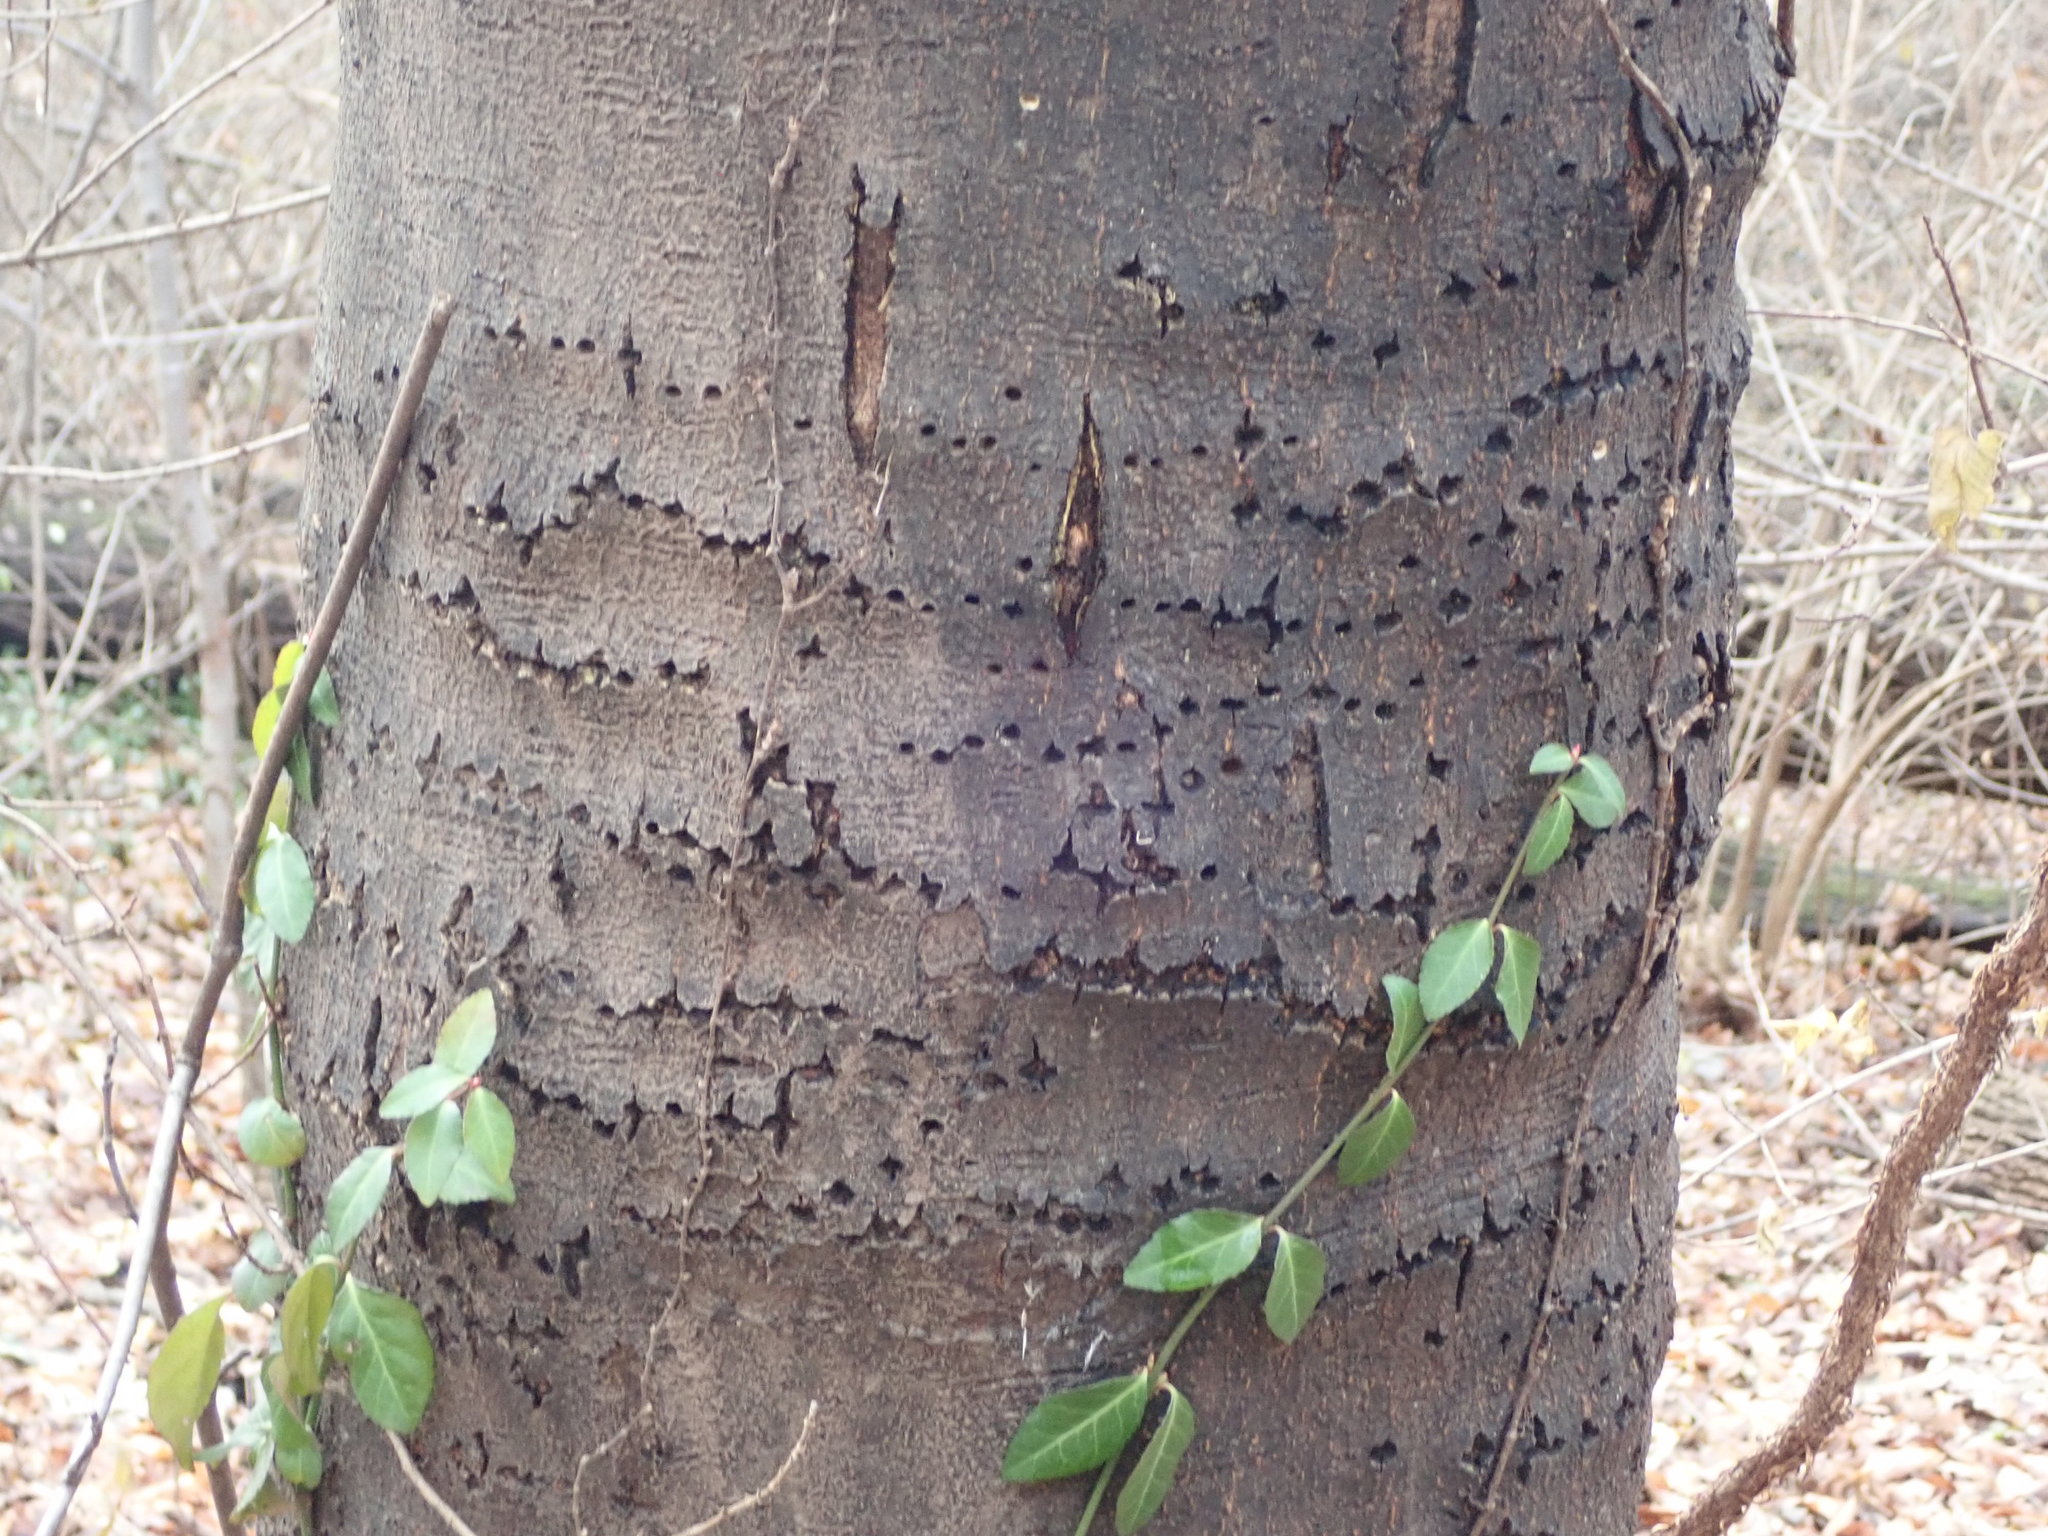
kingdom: Animalia
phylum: Chordata
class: Aves
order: Piciformes
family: Picidae
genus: Sphyrapicus
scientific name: Sphyrapicus varius
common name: Yellow-bellied sapsucker
